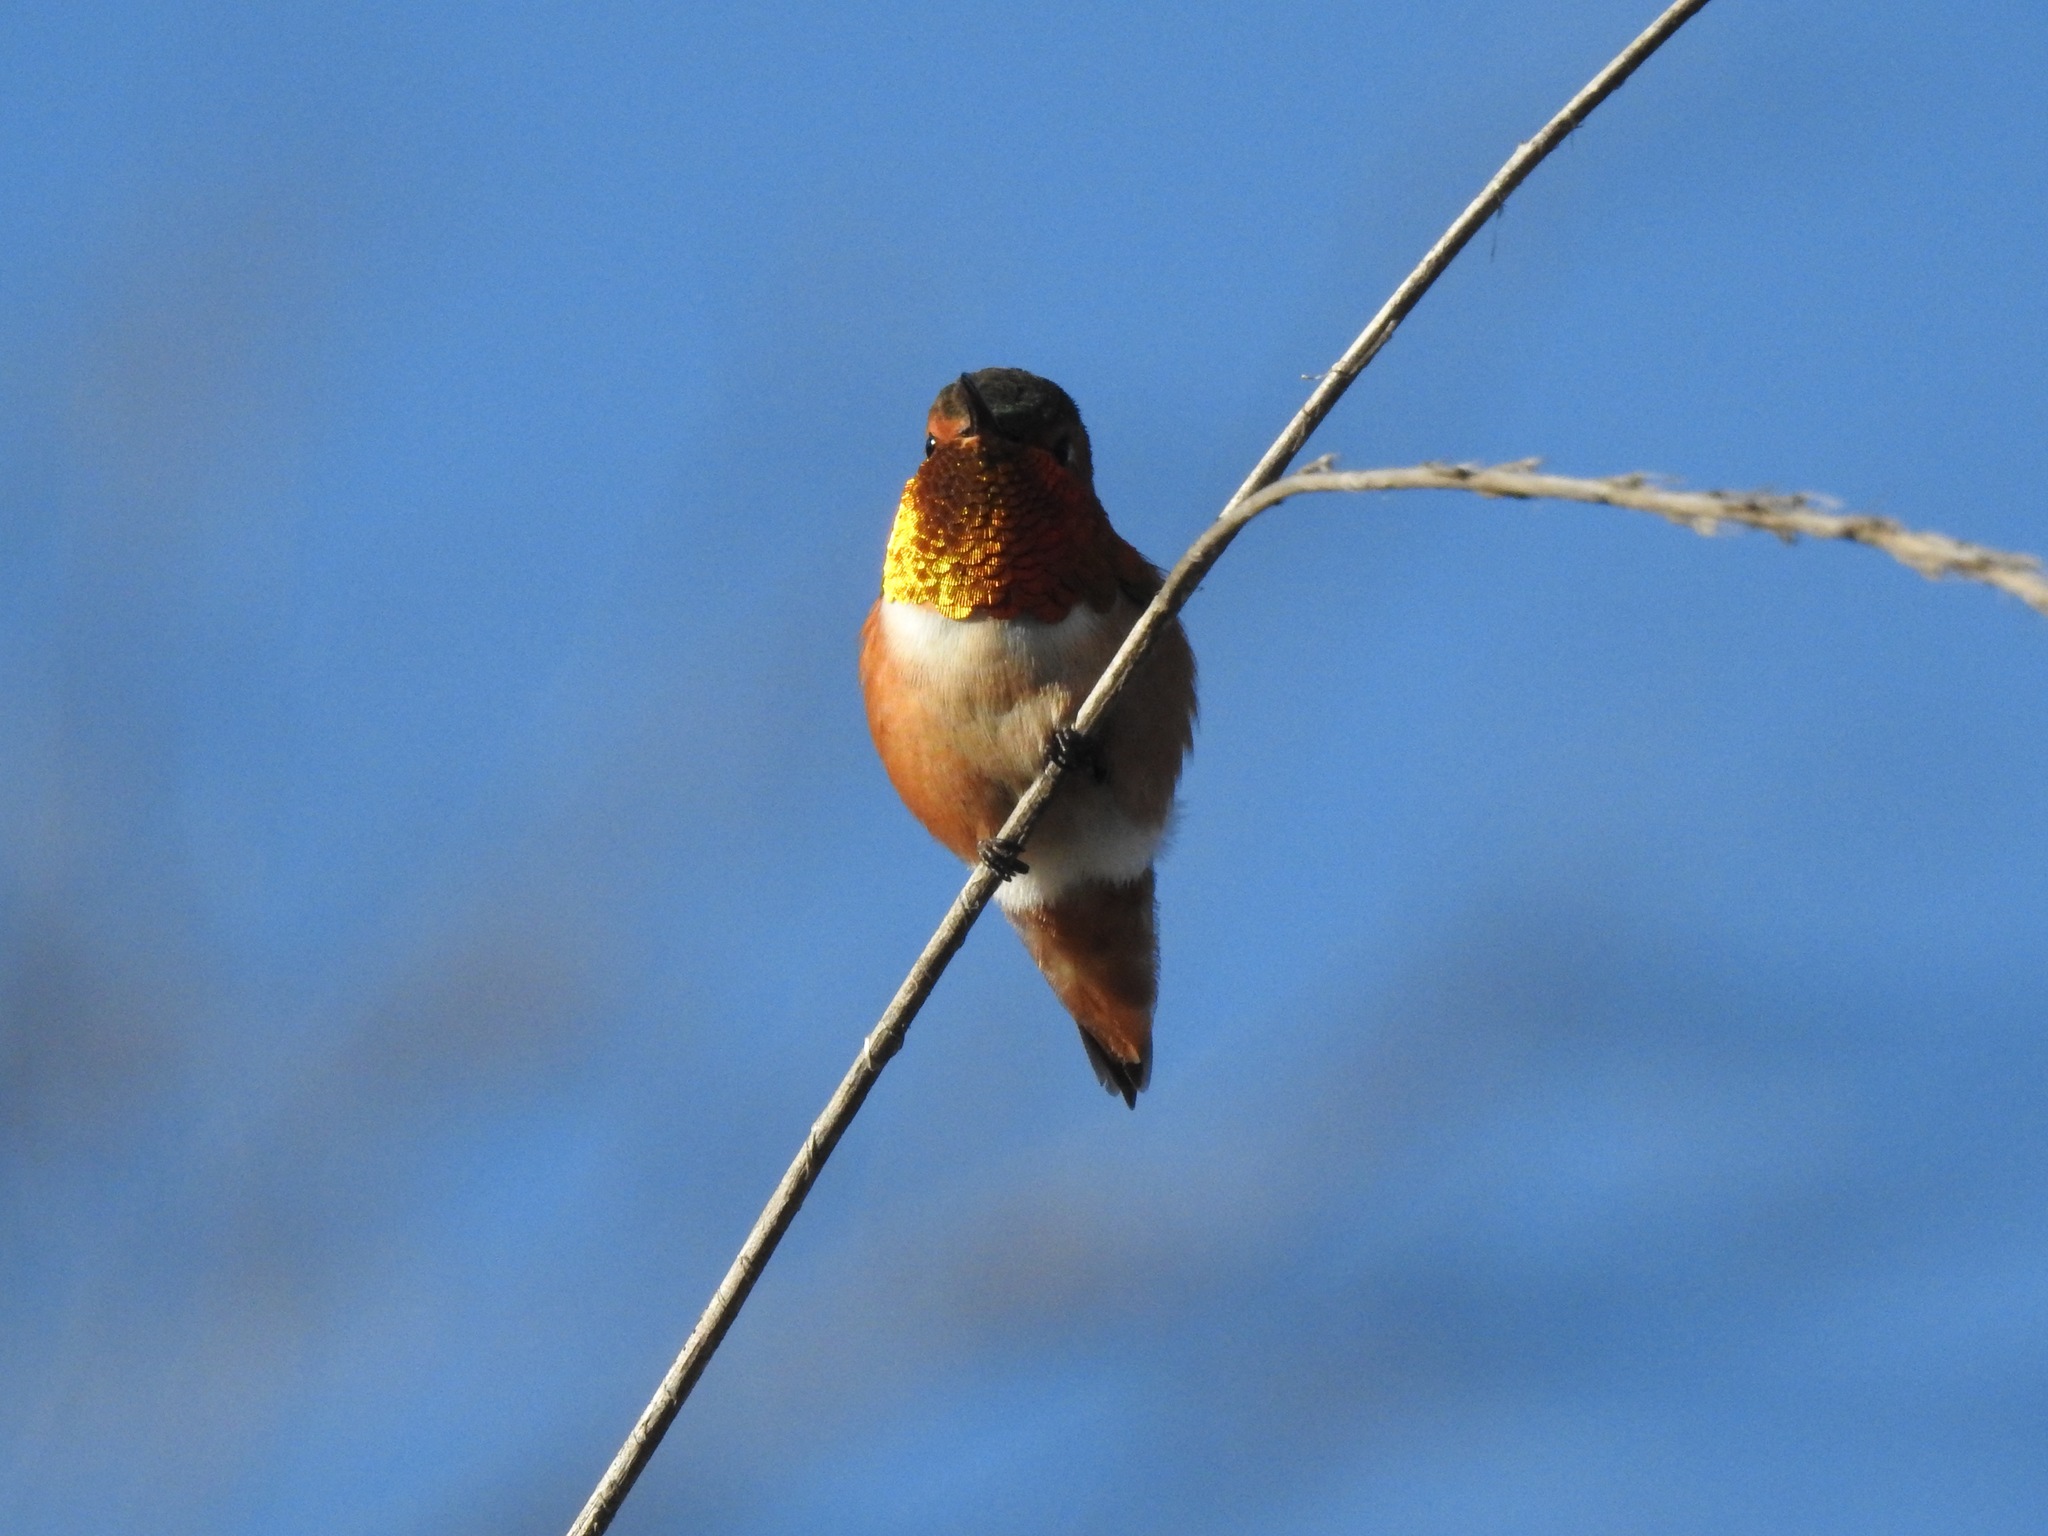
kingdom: Animalia
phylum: Chordata
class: Aves
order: Apodiformes
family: Trochilidae
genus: Selasphorus
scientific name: Selasphorus
